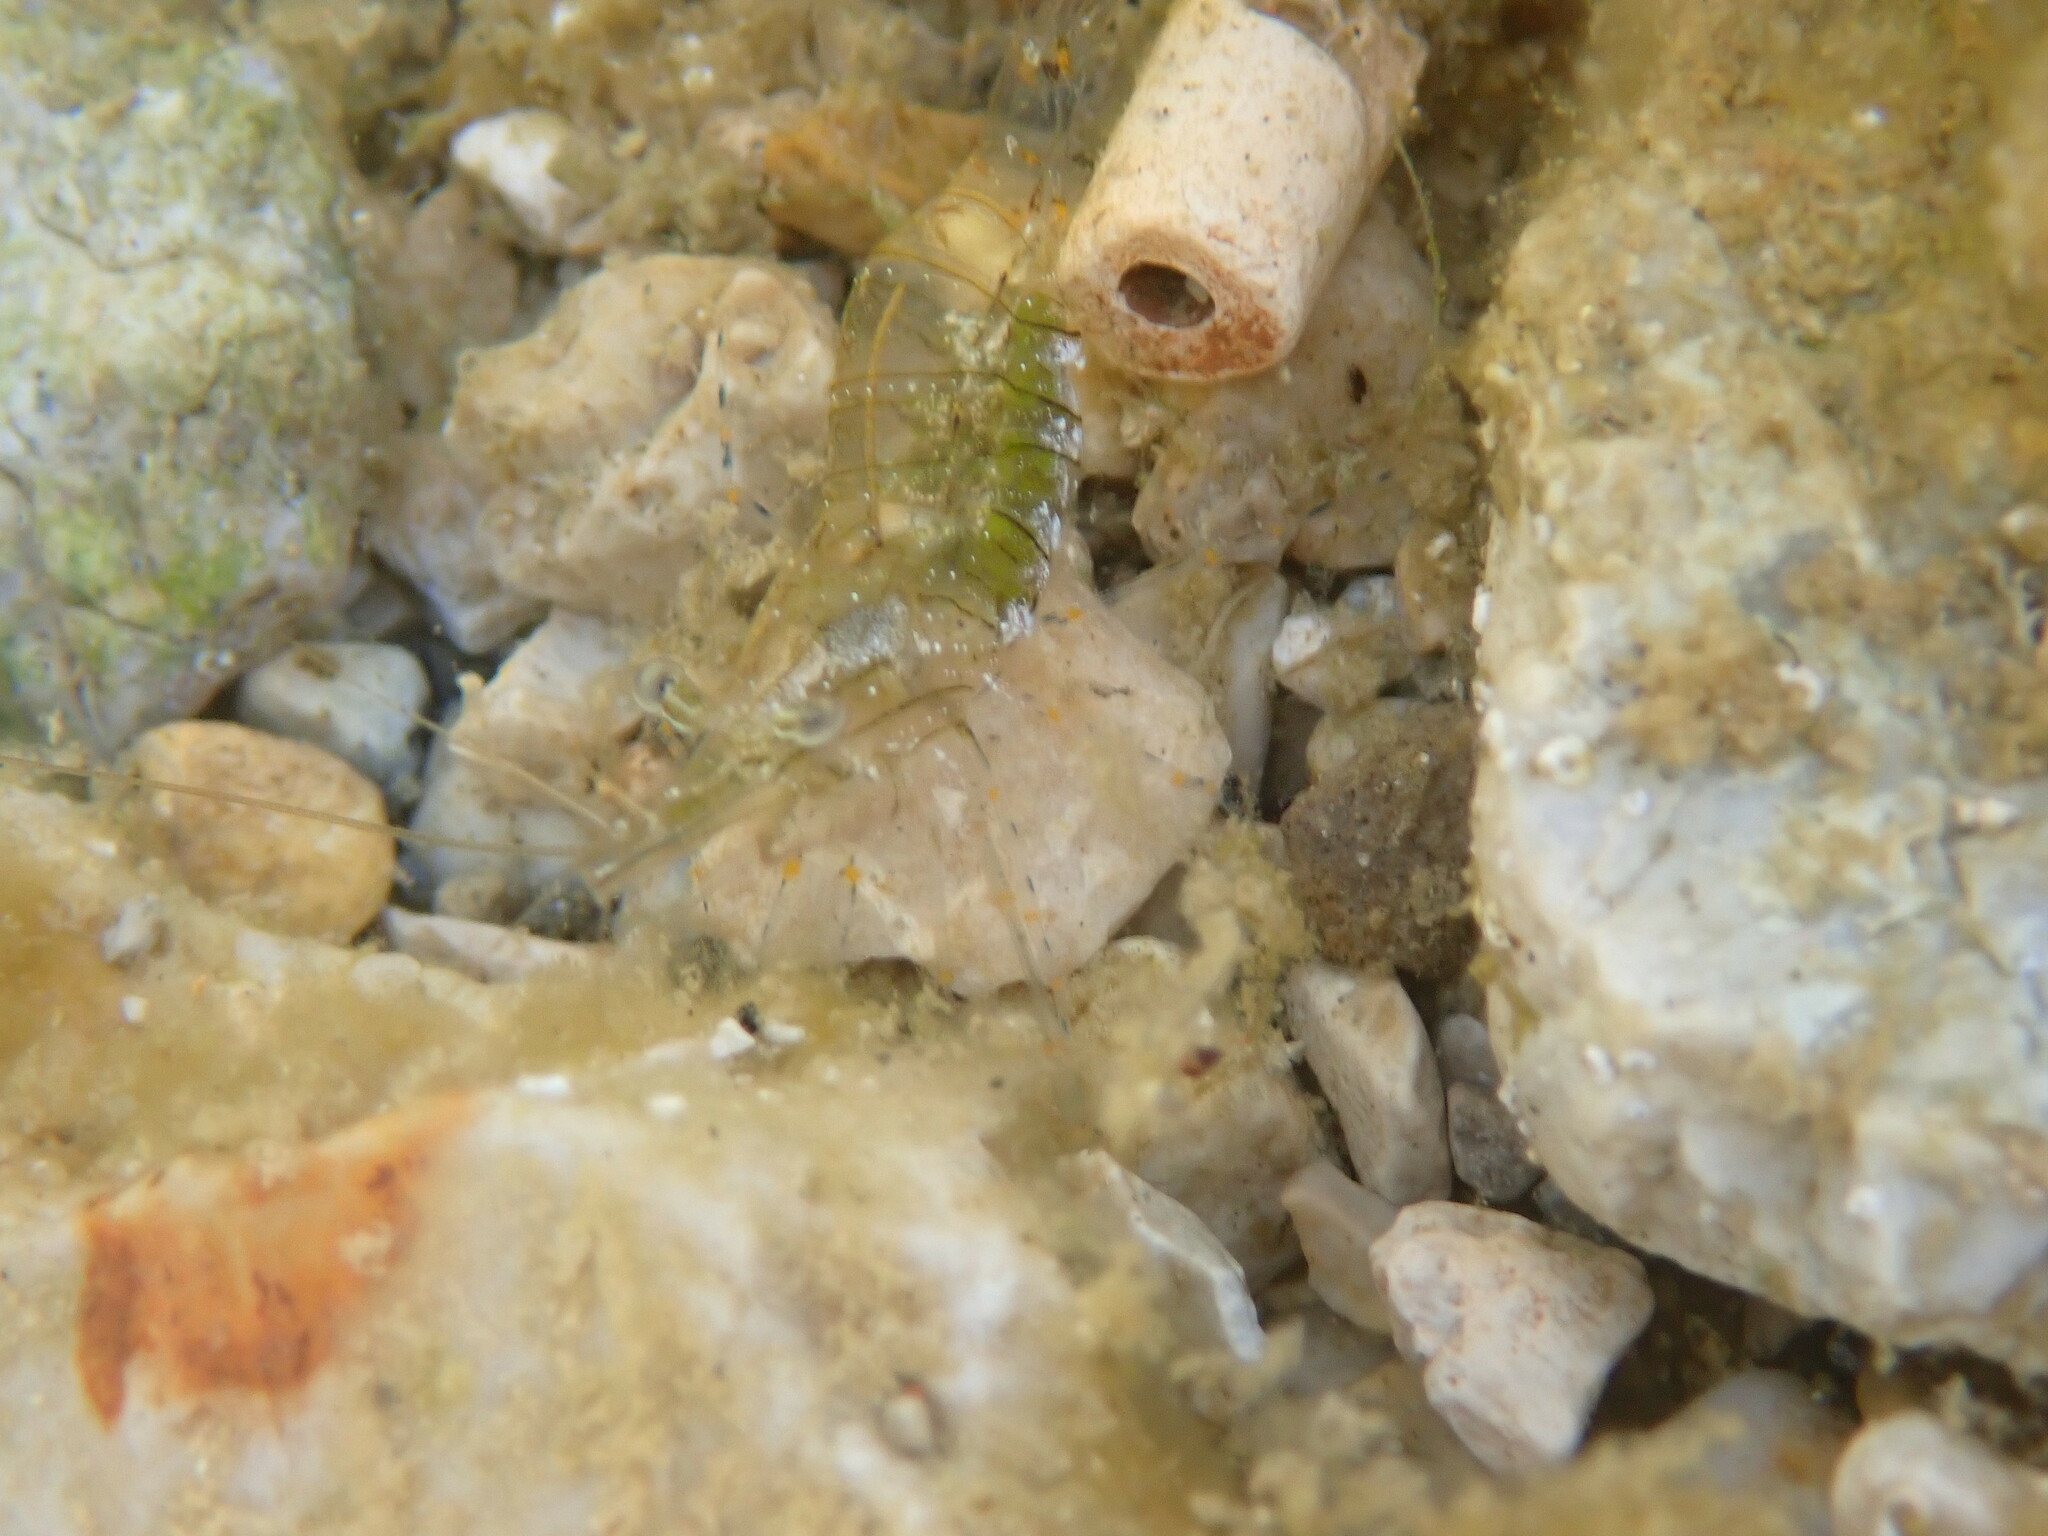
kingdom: Animalia
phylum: Arthropoda
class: Malacostraca
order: Decapoda
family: Palaemonidae
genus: Palaemon
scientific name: Palaemon elegans
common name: Grass prawm
